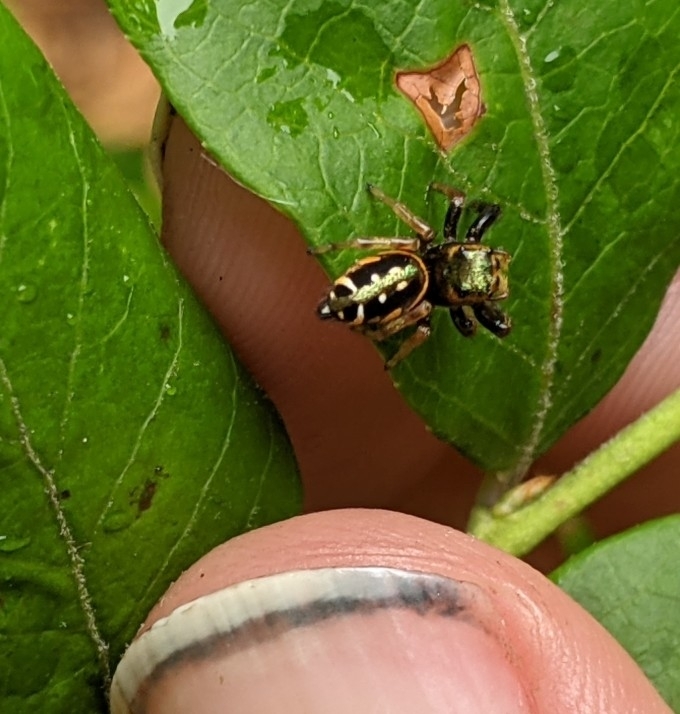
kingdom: Animalia
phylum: Arthropoda
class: Arachnida
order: Araneae
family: Salticidae
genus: Paraphidippus
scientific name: Paraphidippus aurantius
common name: Jumping spiders
